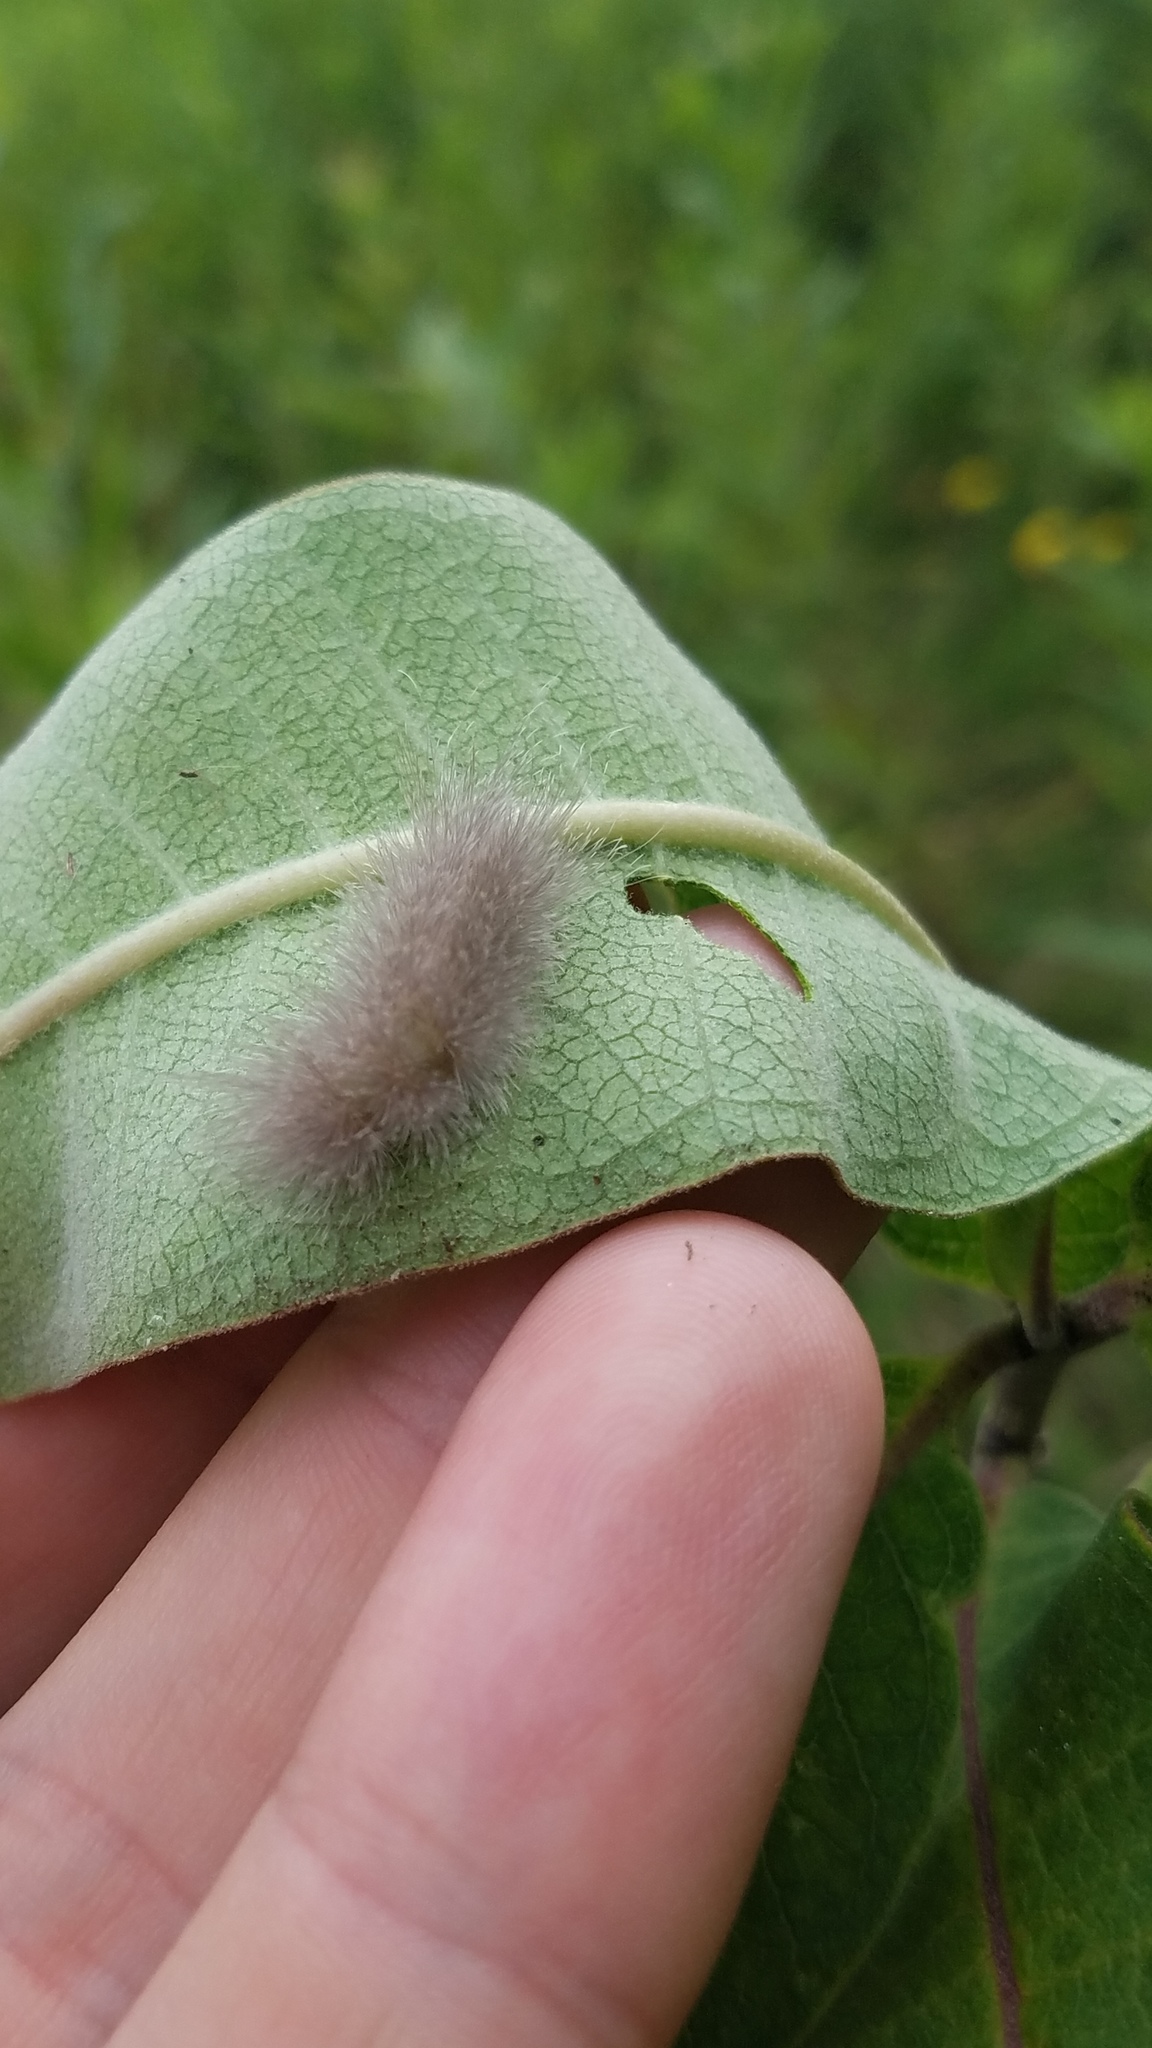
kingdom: Animalia
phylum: Arthropoda
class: Insecta
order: Lepidoptera
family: Erebidae
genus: Cycnia
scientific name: Cycnia tenera
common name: Delicate cycnia moth
